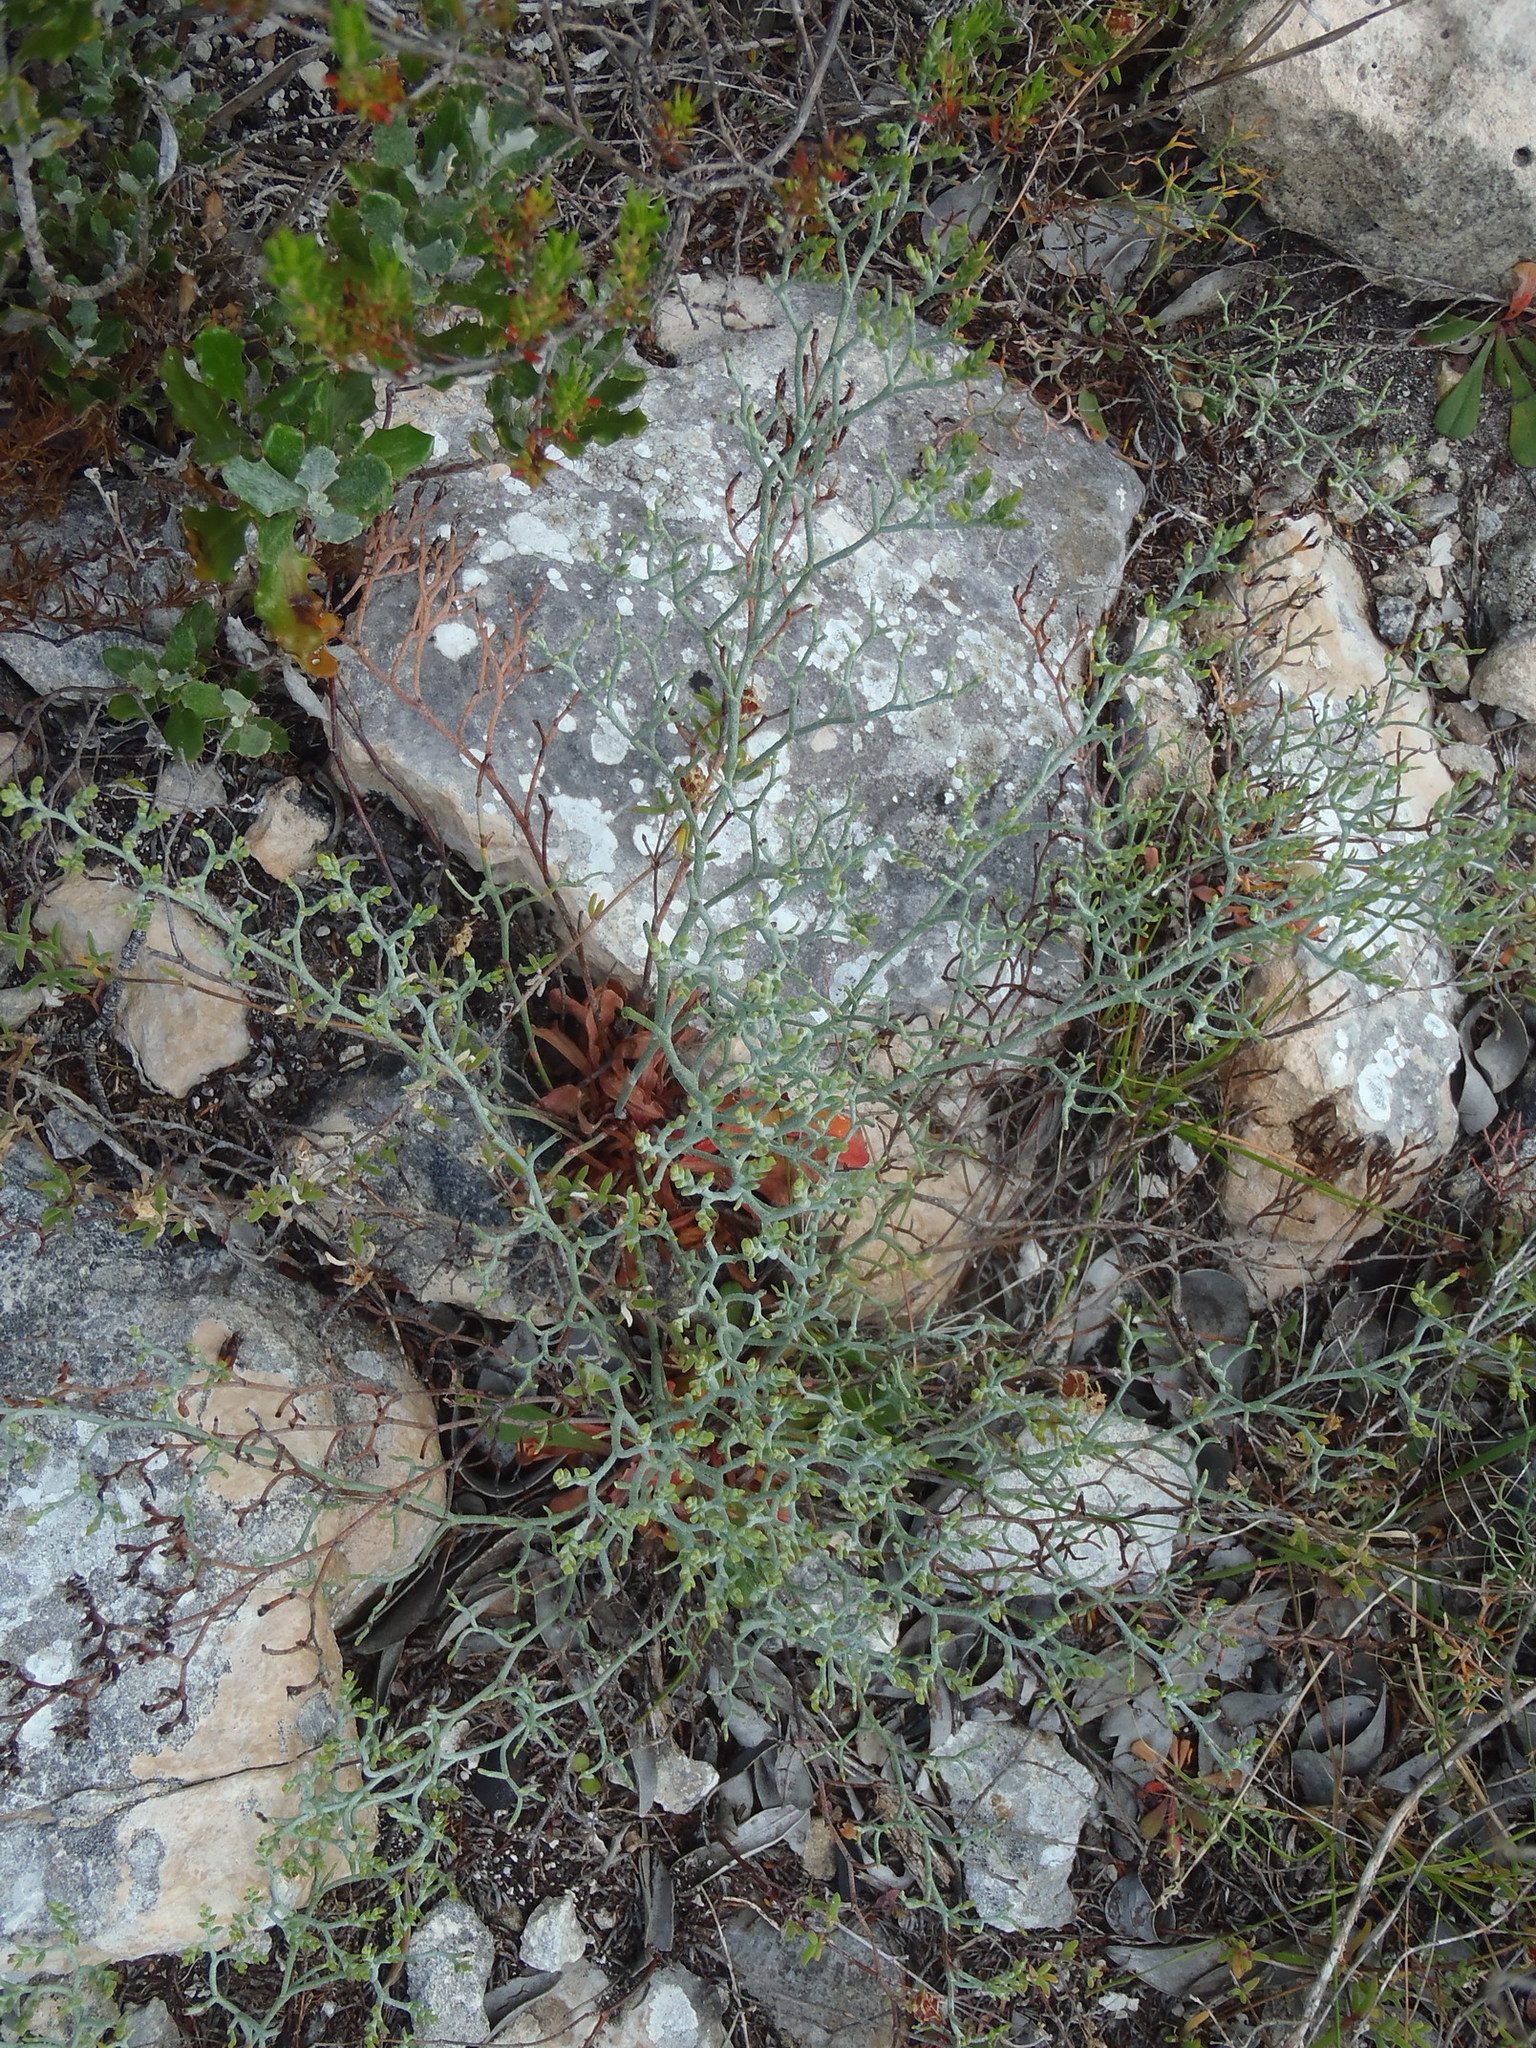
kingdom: Plantae
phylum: Tracheophyta
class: Magnoliopsida
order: Caryophyllales
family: Plumbaginaceae
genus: Limonium
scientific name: Limonium scabrum
